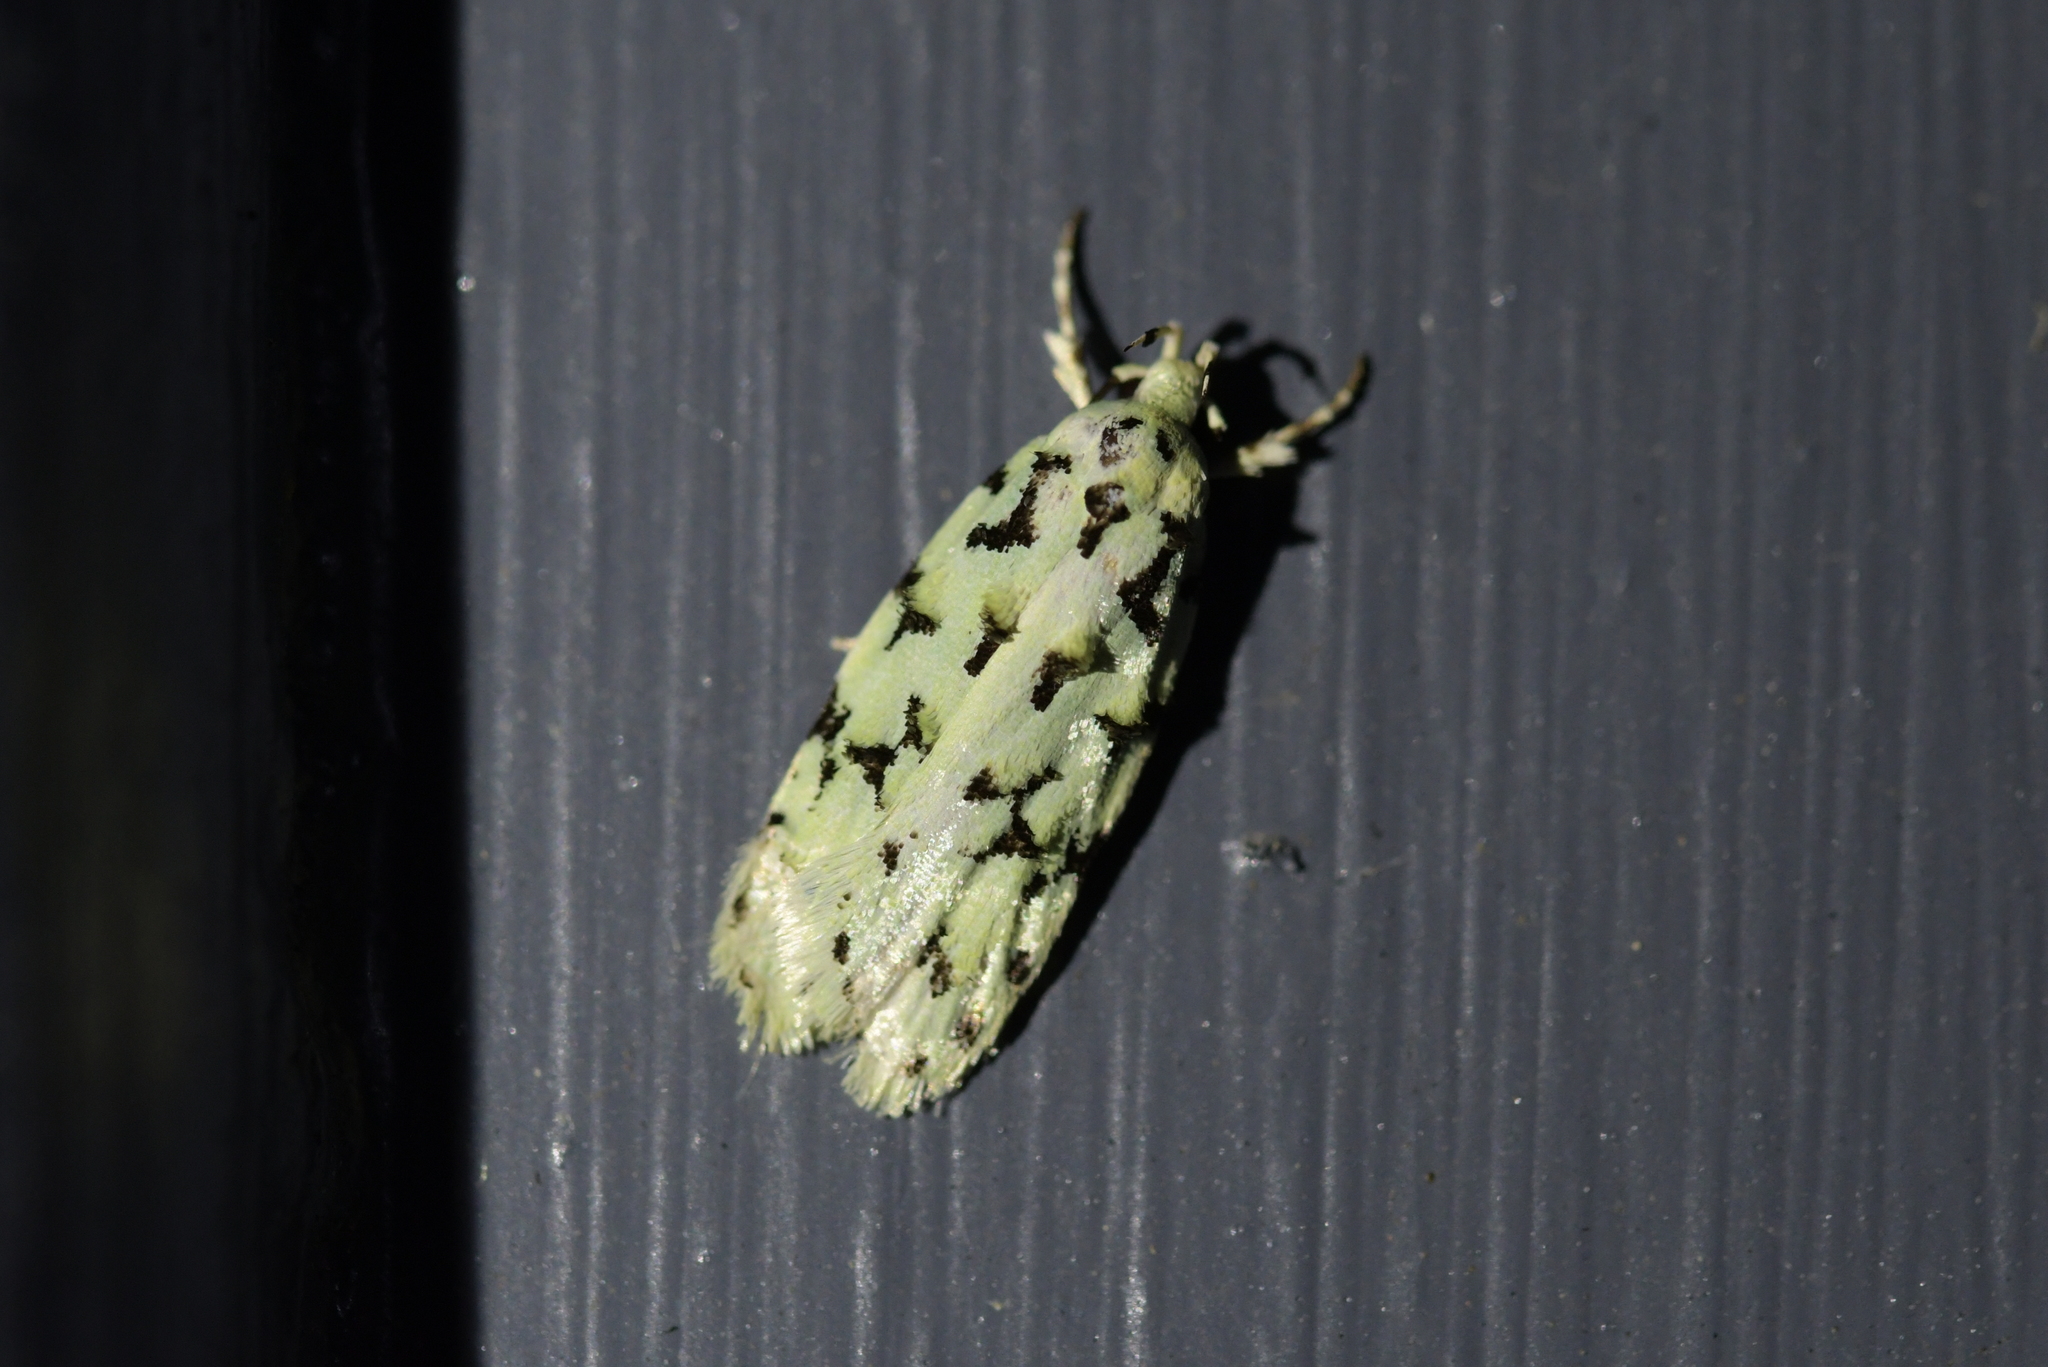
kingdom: Animalia
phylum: Arthropoda
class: Insecta
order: Lepidoptera
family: Oecophoridae
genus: Izatha
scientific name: Izatha huttoni
